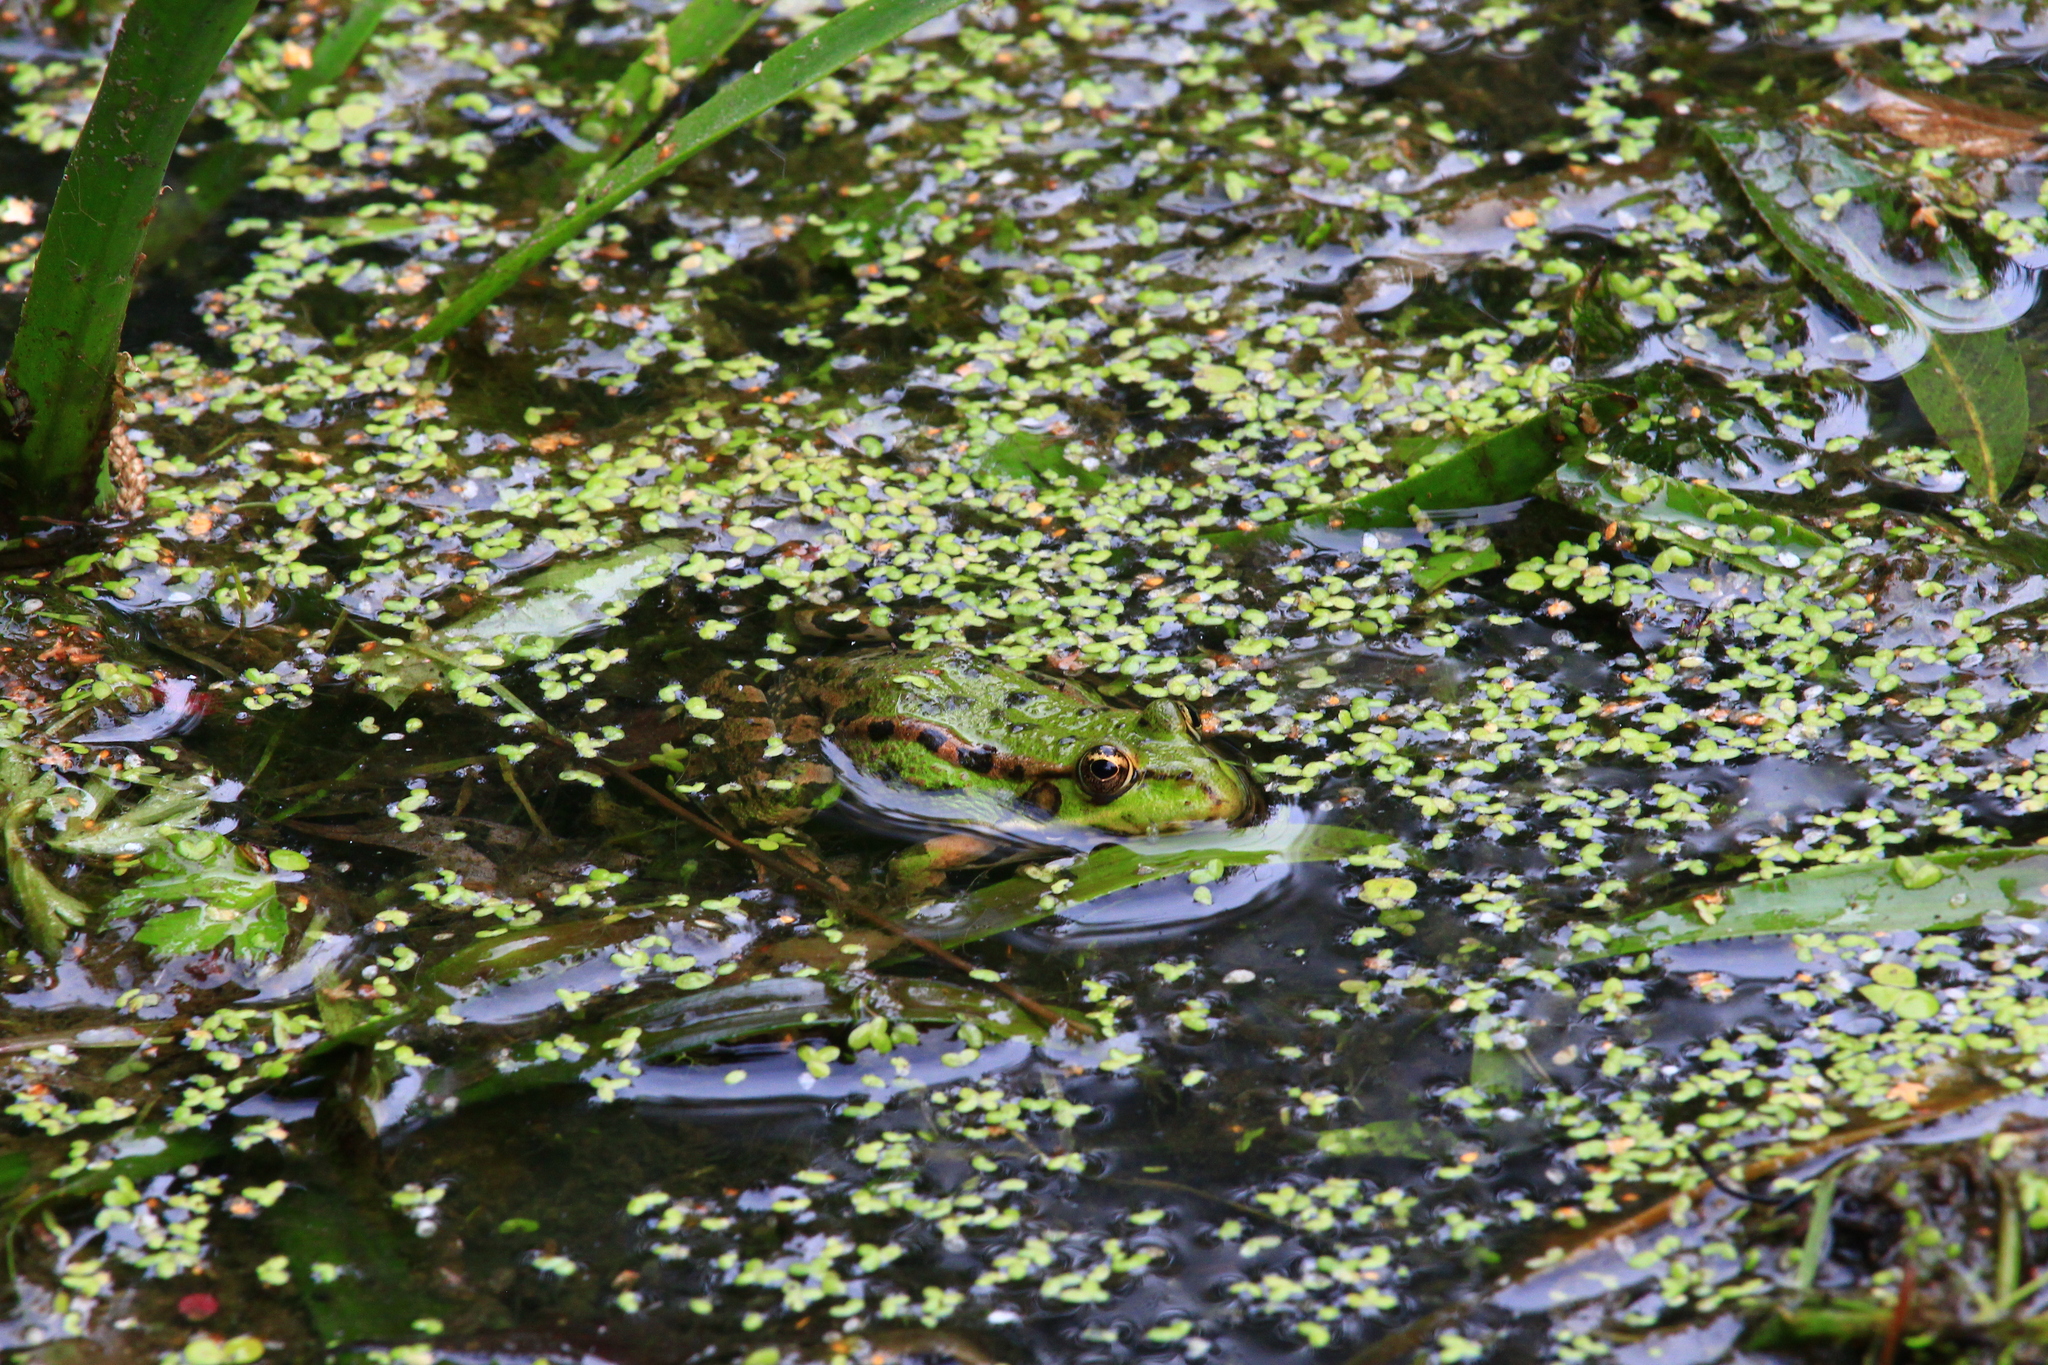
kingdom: Animalia
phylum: Chordata
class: Amphibia
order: Anura
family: Ranidae
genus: Pelophylax
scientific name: Pelophylax lessonae
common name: Pool frog
